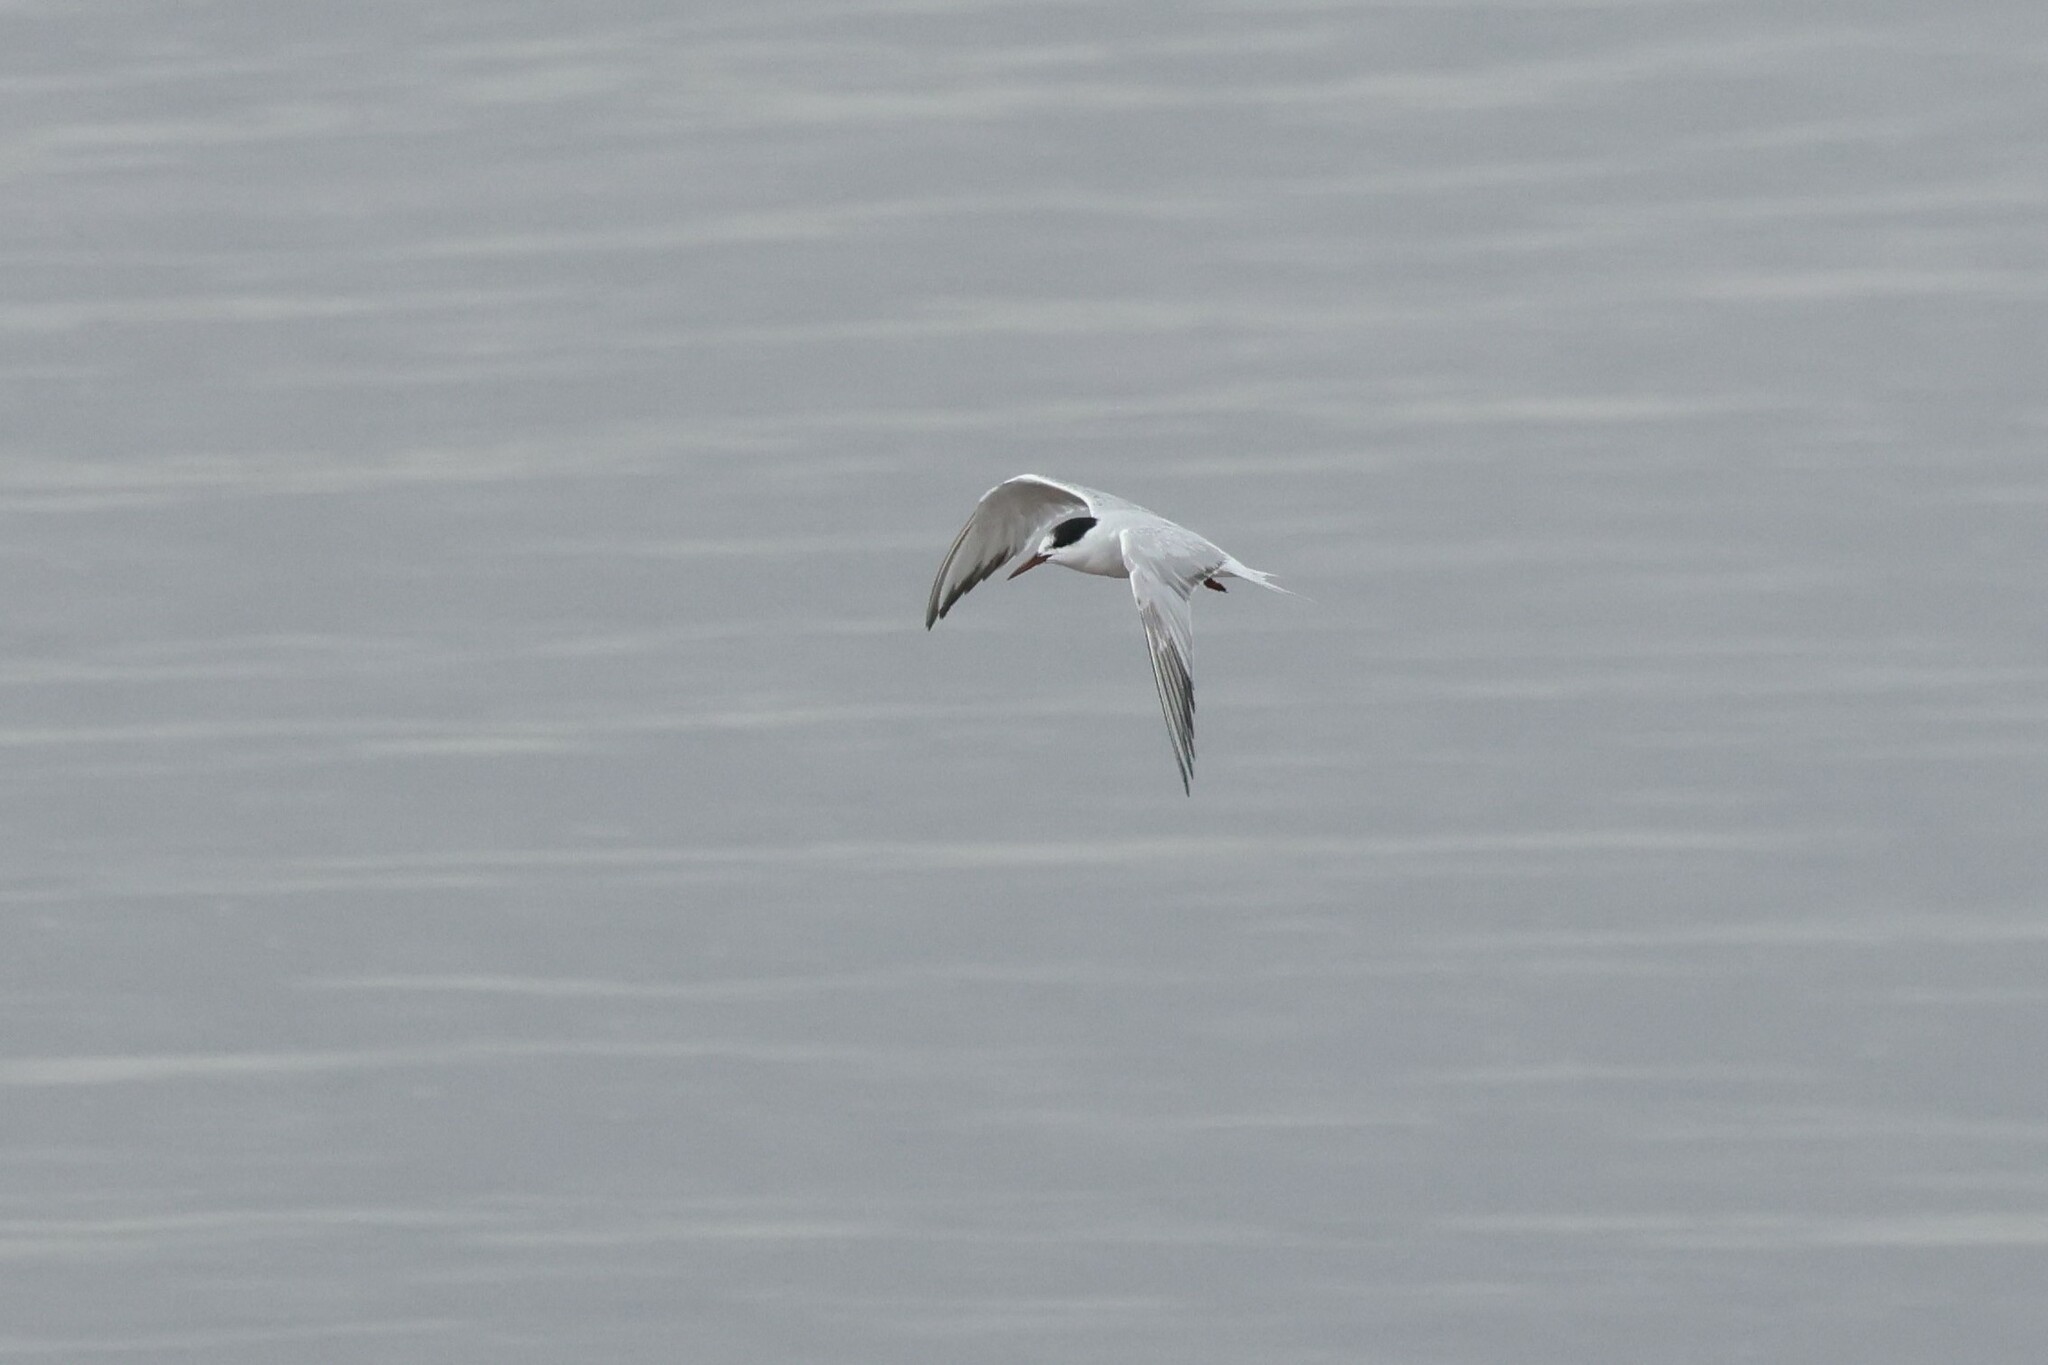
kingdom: Animalia
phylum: Chordata
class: Aves
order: Charadriiformes
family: Laridae
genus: Sterna
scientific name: Sterna hirundo
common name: Common tern
